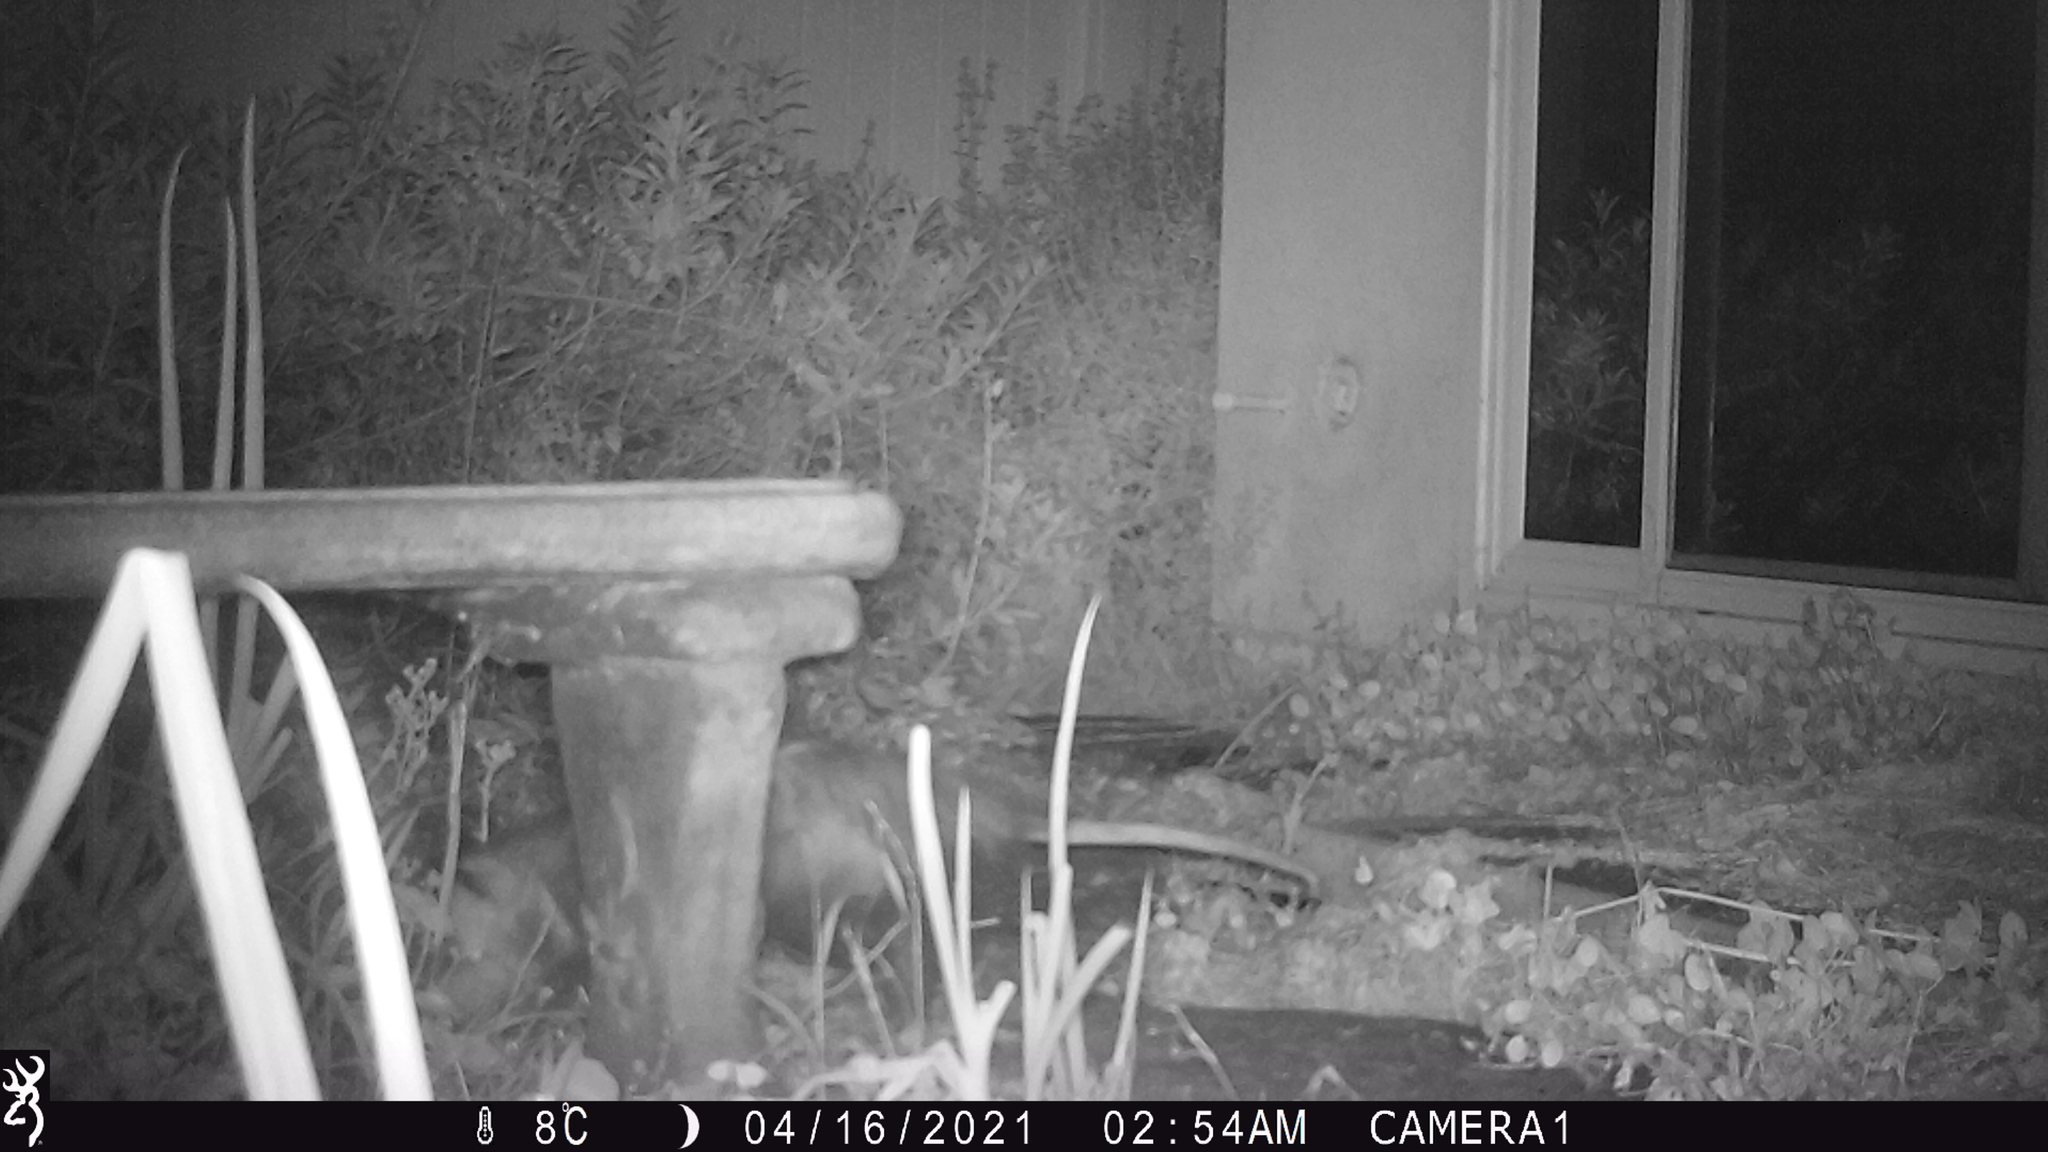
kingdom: Animalia
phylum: Chordata
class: Mammalia
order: Didelphimorphia
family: Didelphidae
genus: Didelphis
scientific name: Didelphis virginiana
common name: Virginia opossum
